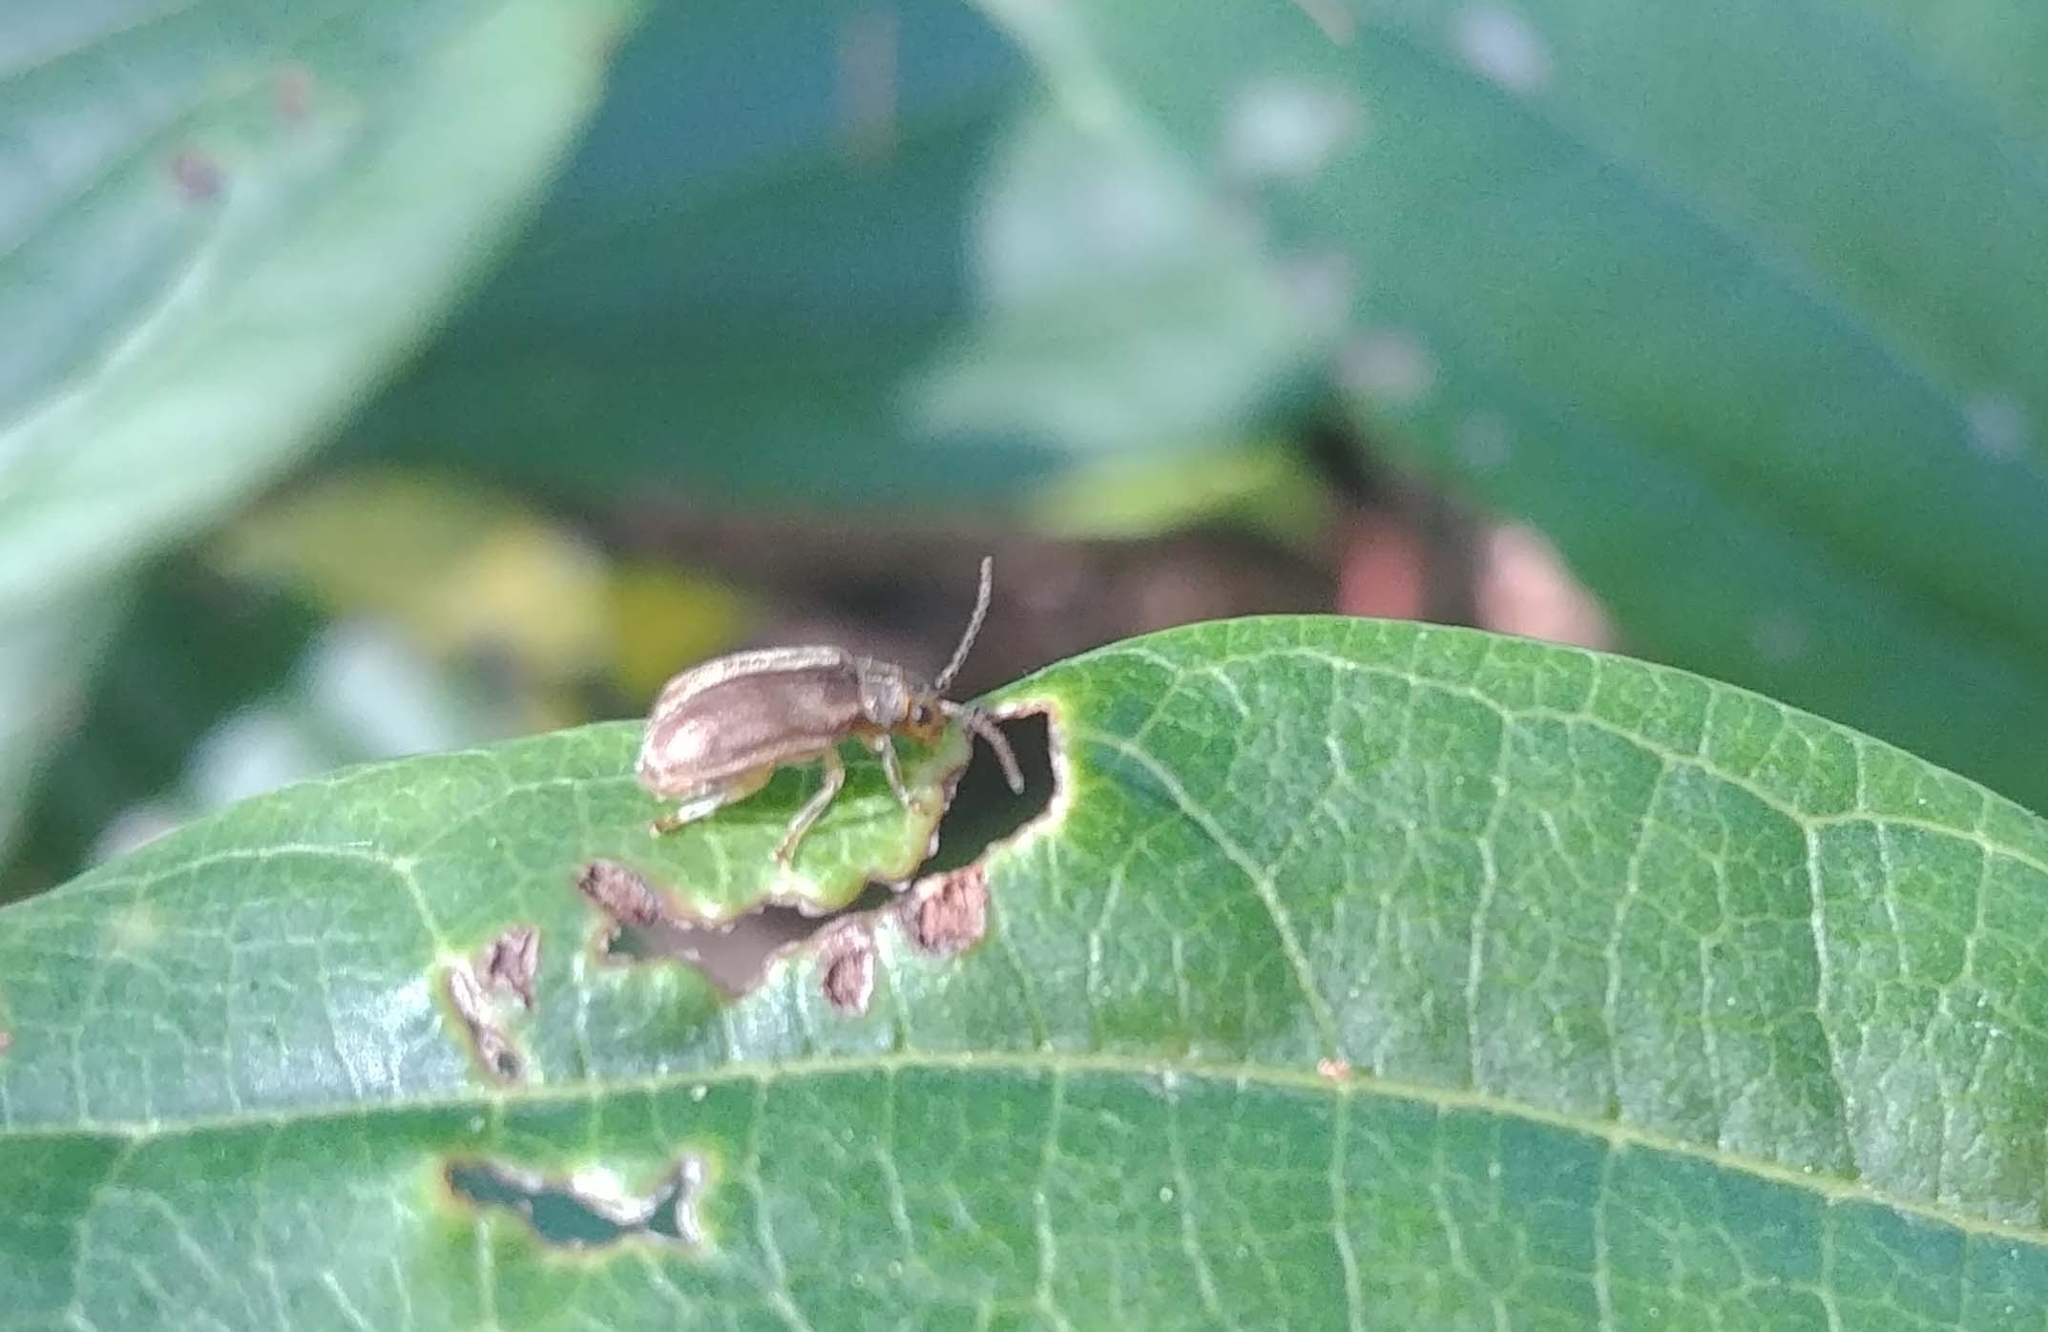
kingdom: Animalia
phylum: Arthropoda
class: Insecta
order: Coleoptera
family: Chrysomelidae
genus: Pyrrhalta
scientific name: Pyrrhalta viburni
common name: Guelder-rose leaf beetle
